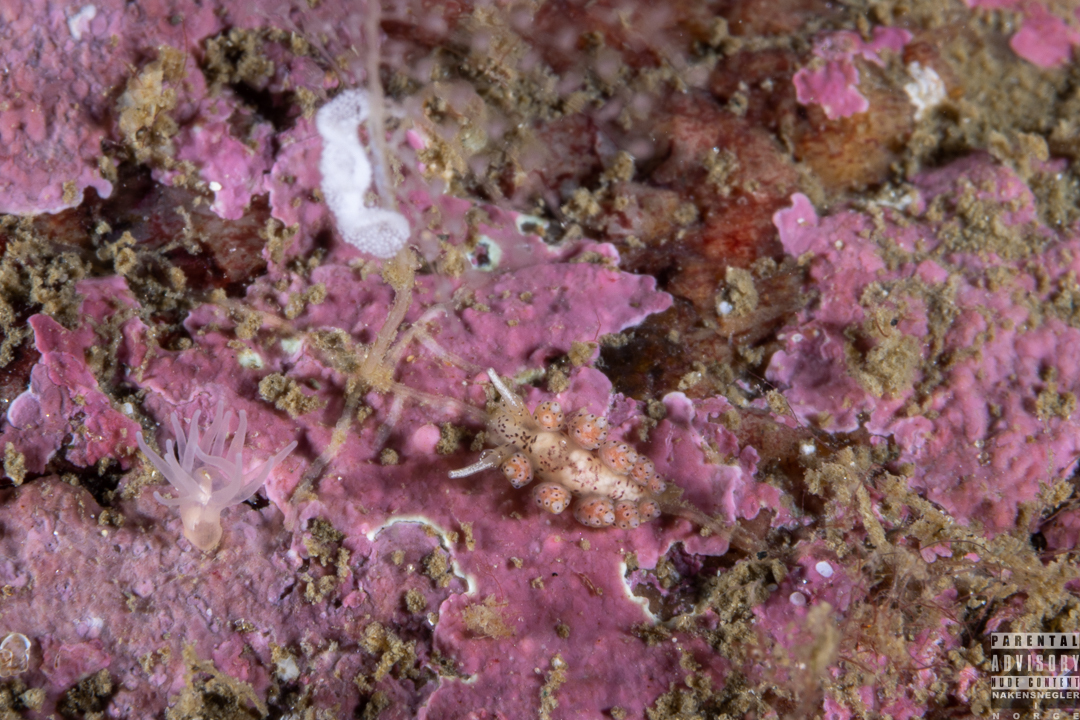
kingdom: Animalia
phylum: Mollusca
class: Gastropoda
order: Nudibranchia
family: Dotidae
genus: Doto
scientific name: Doto dunnei
